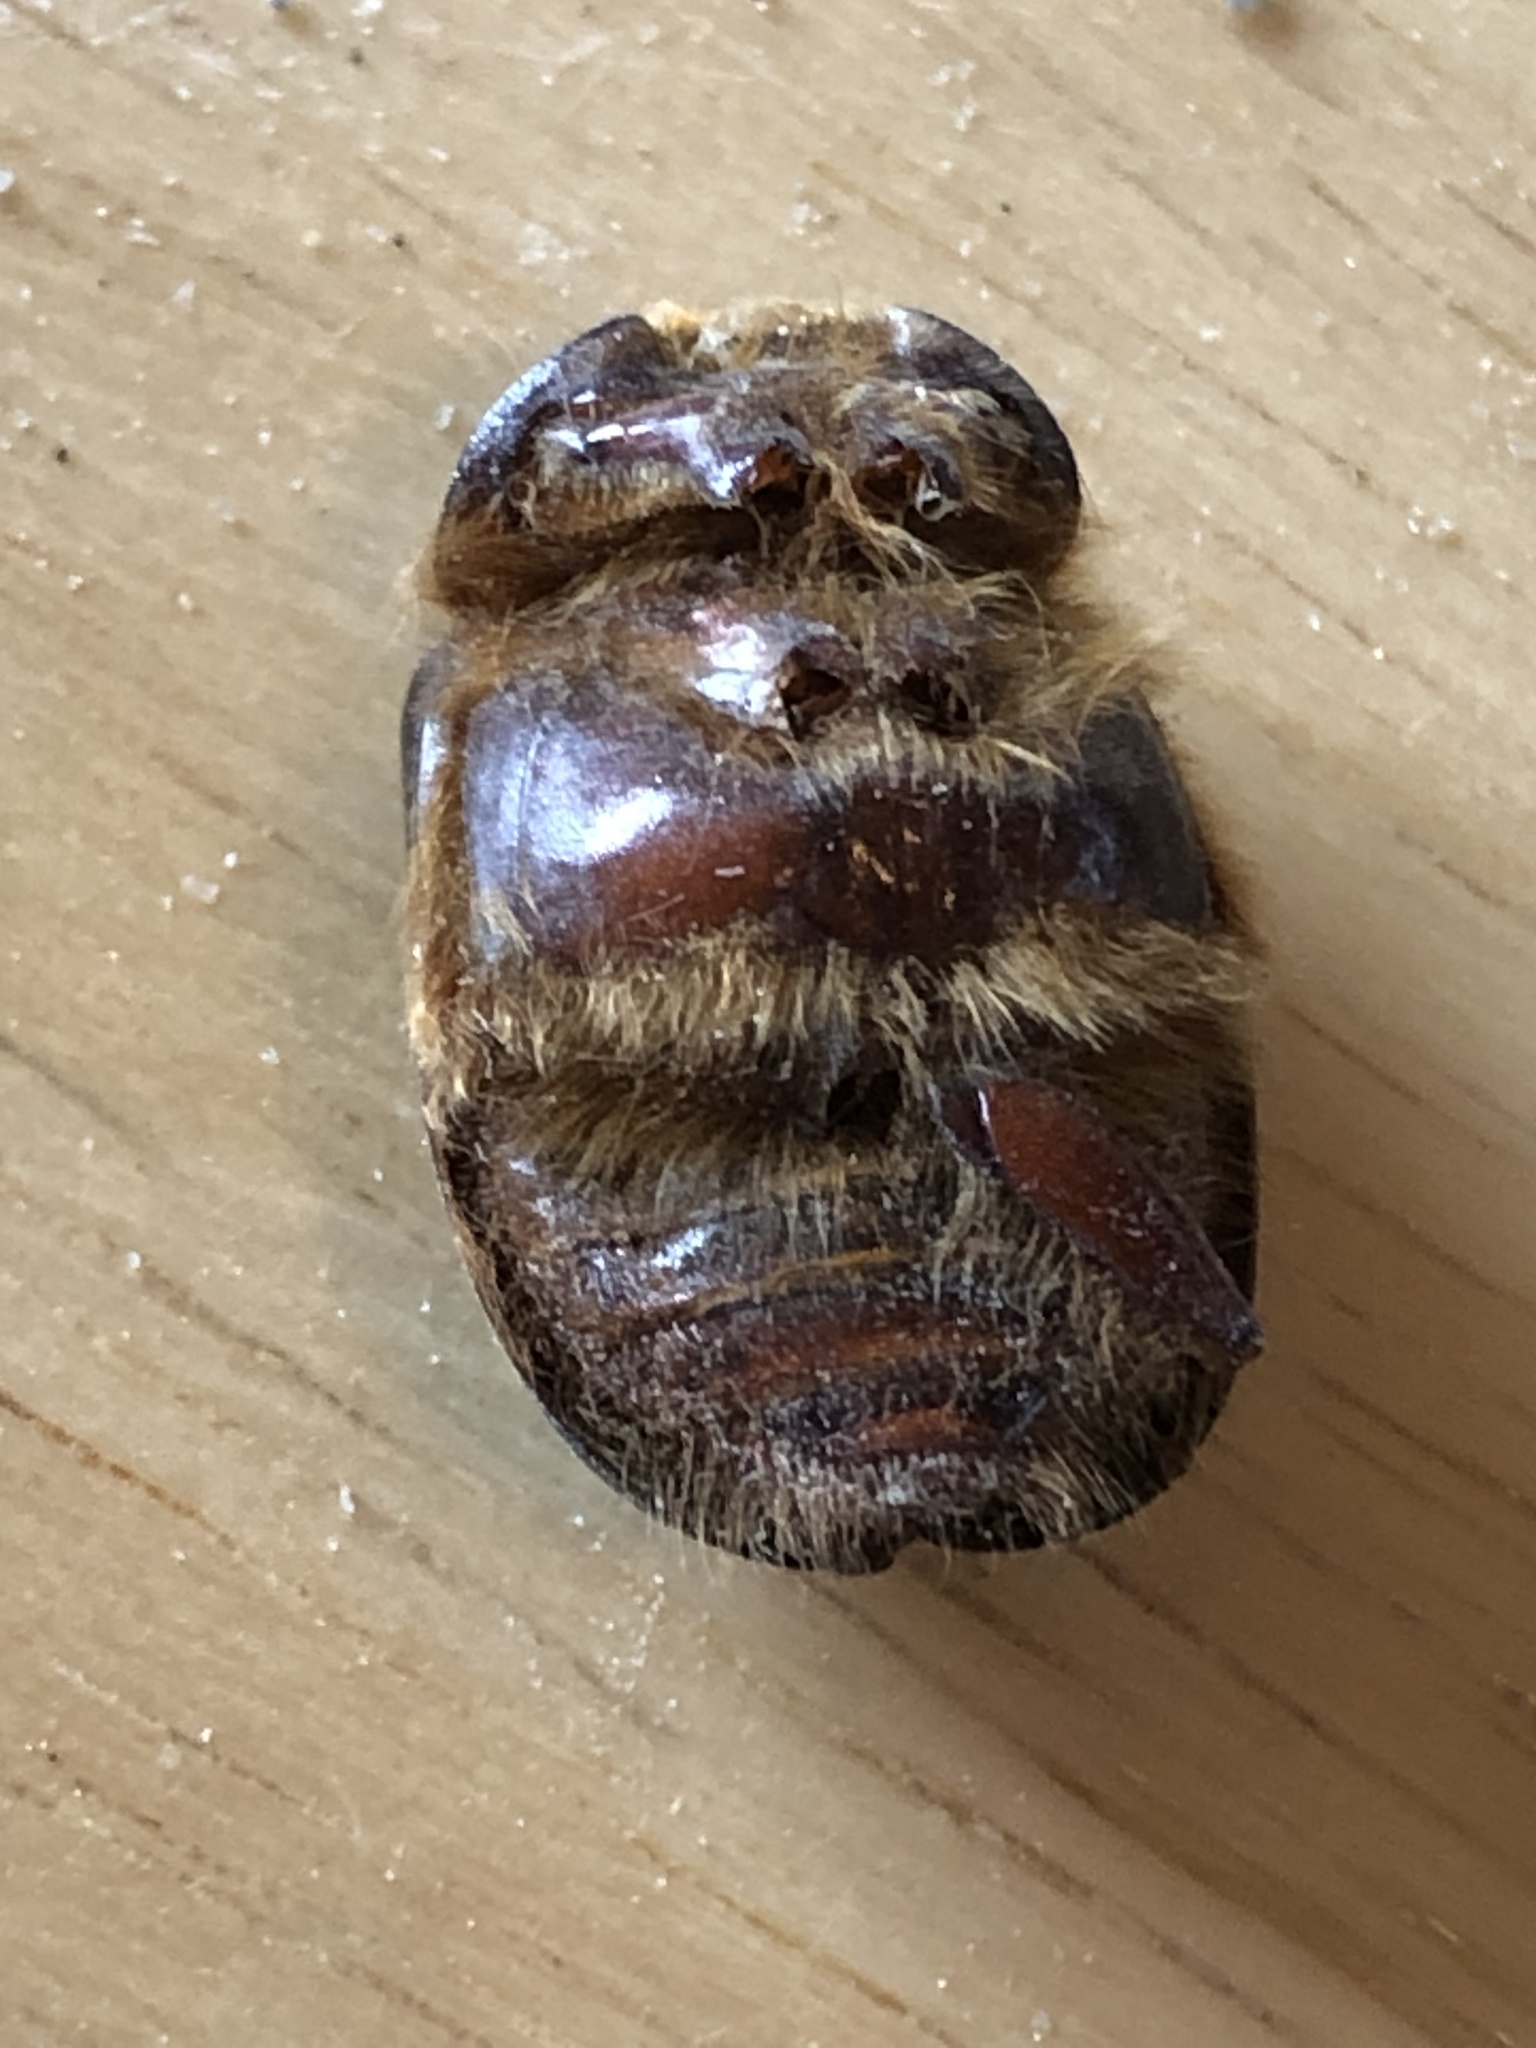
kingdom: Animalia
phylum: Arthropoda
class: Insecta
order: Coleoptera
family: Pleocomidae
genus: Pleocoma
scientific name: Pleocoma conjungens
